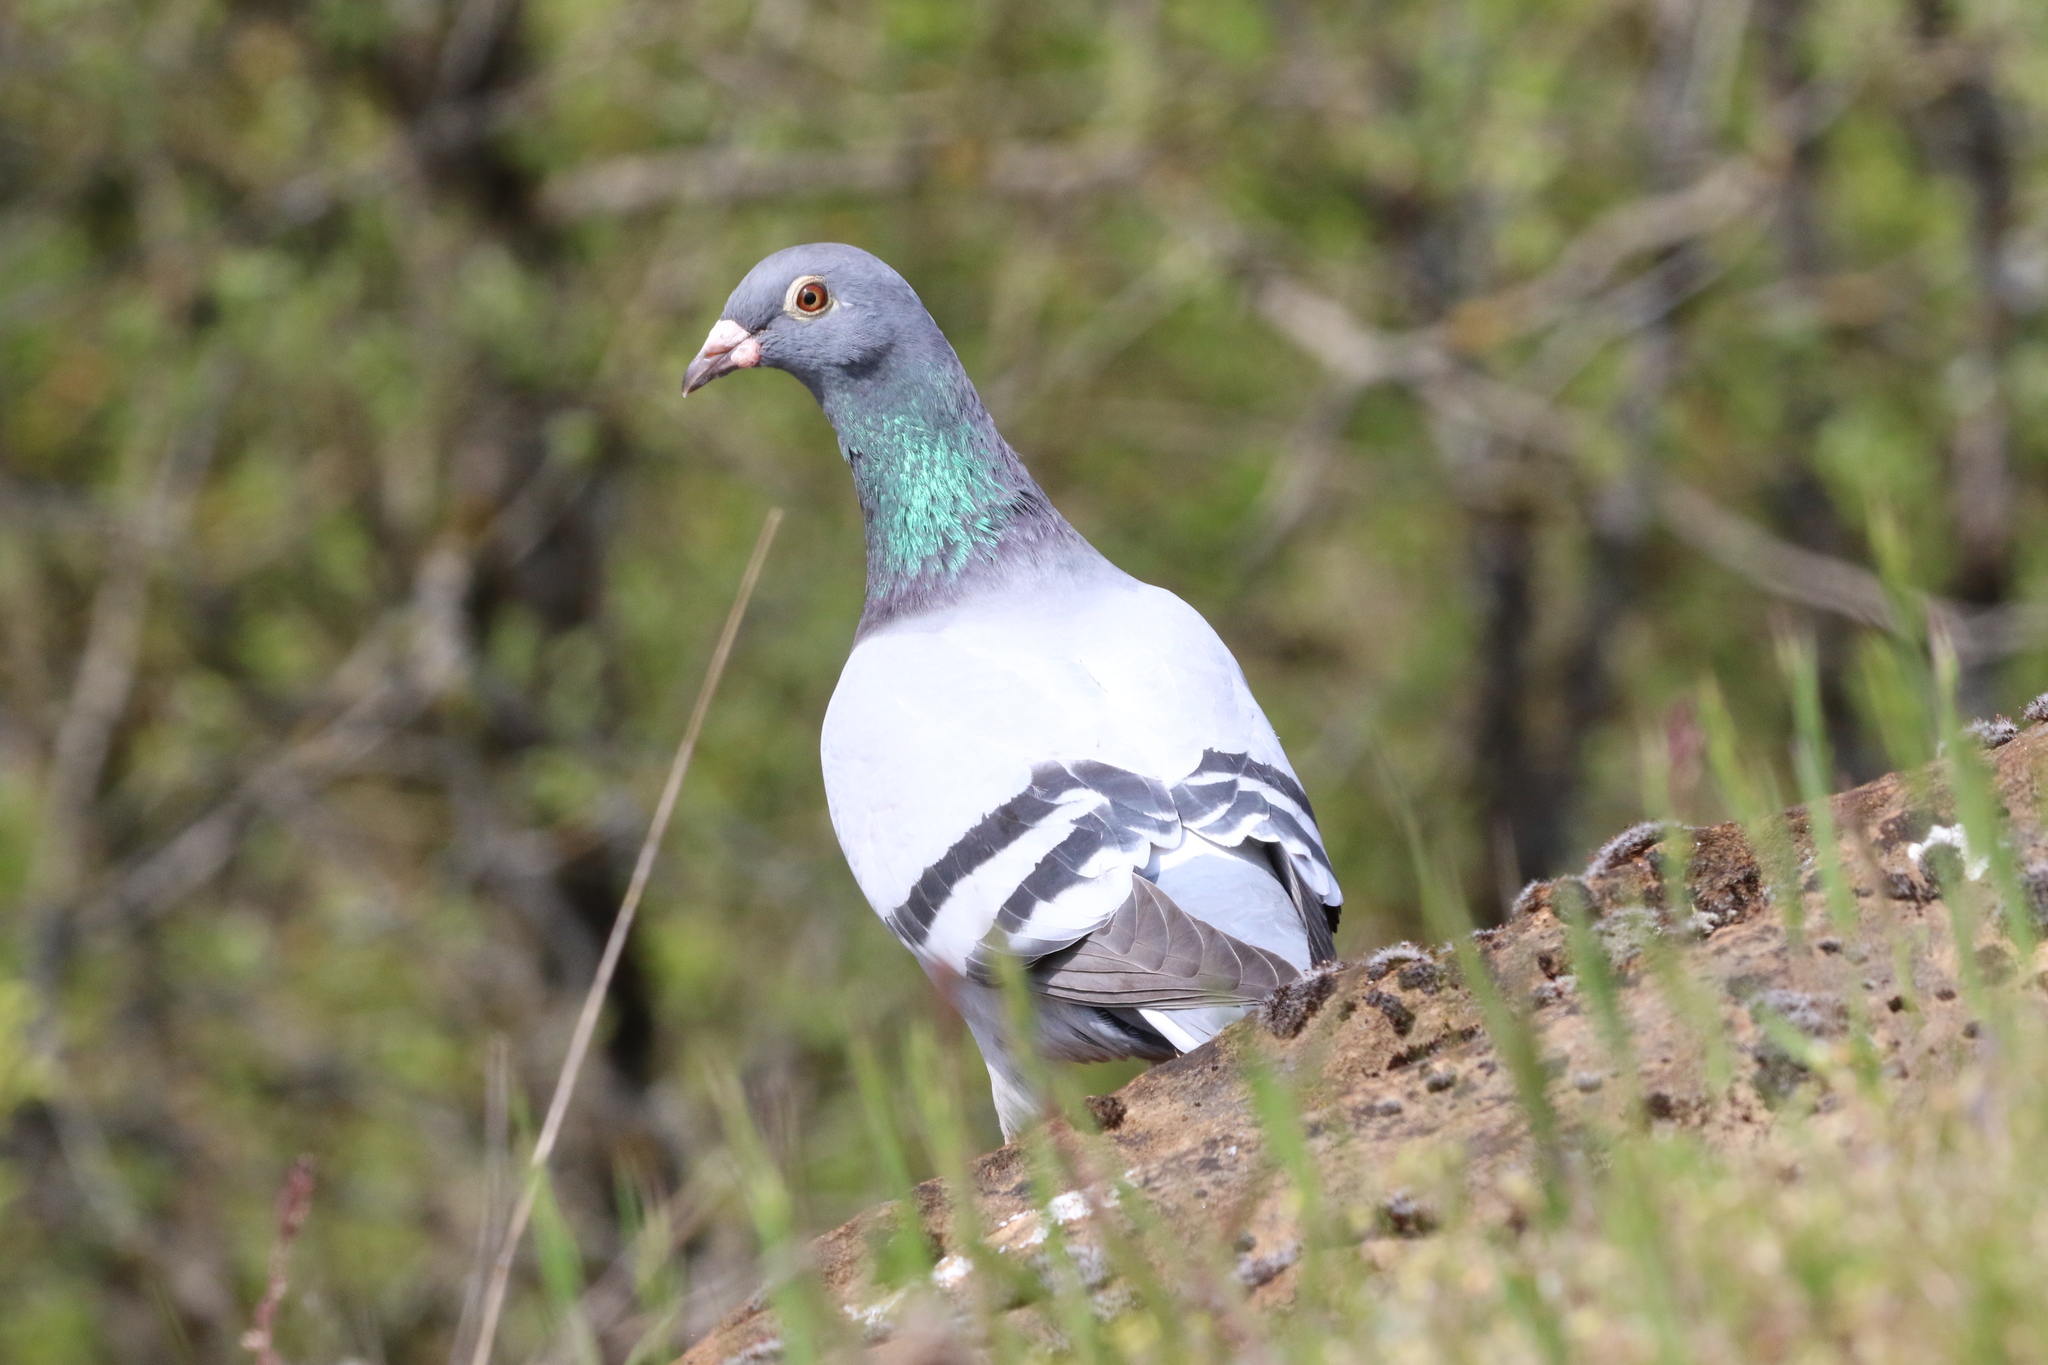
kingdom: Animalia
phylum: Chordata
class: Aves
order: Columbiformes
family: Columbidae
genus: Columba
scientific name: Columba livia
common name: Rock pigeon
